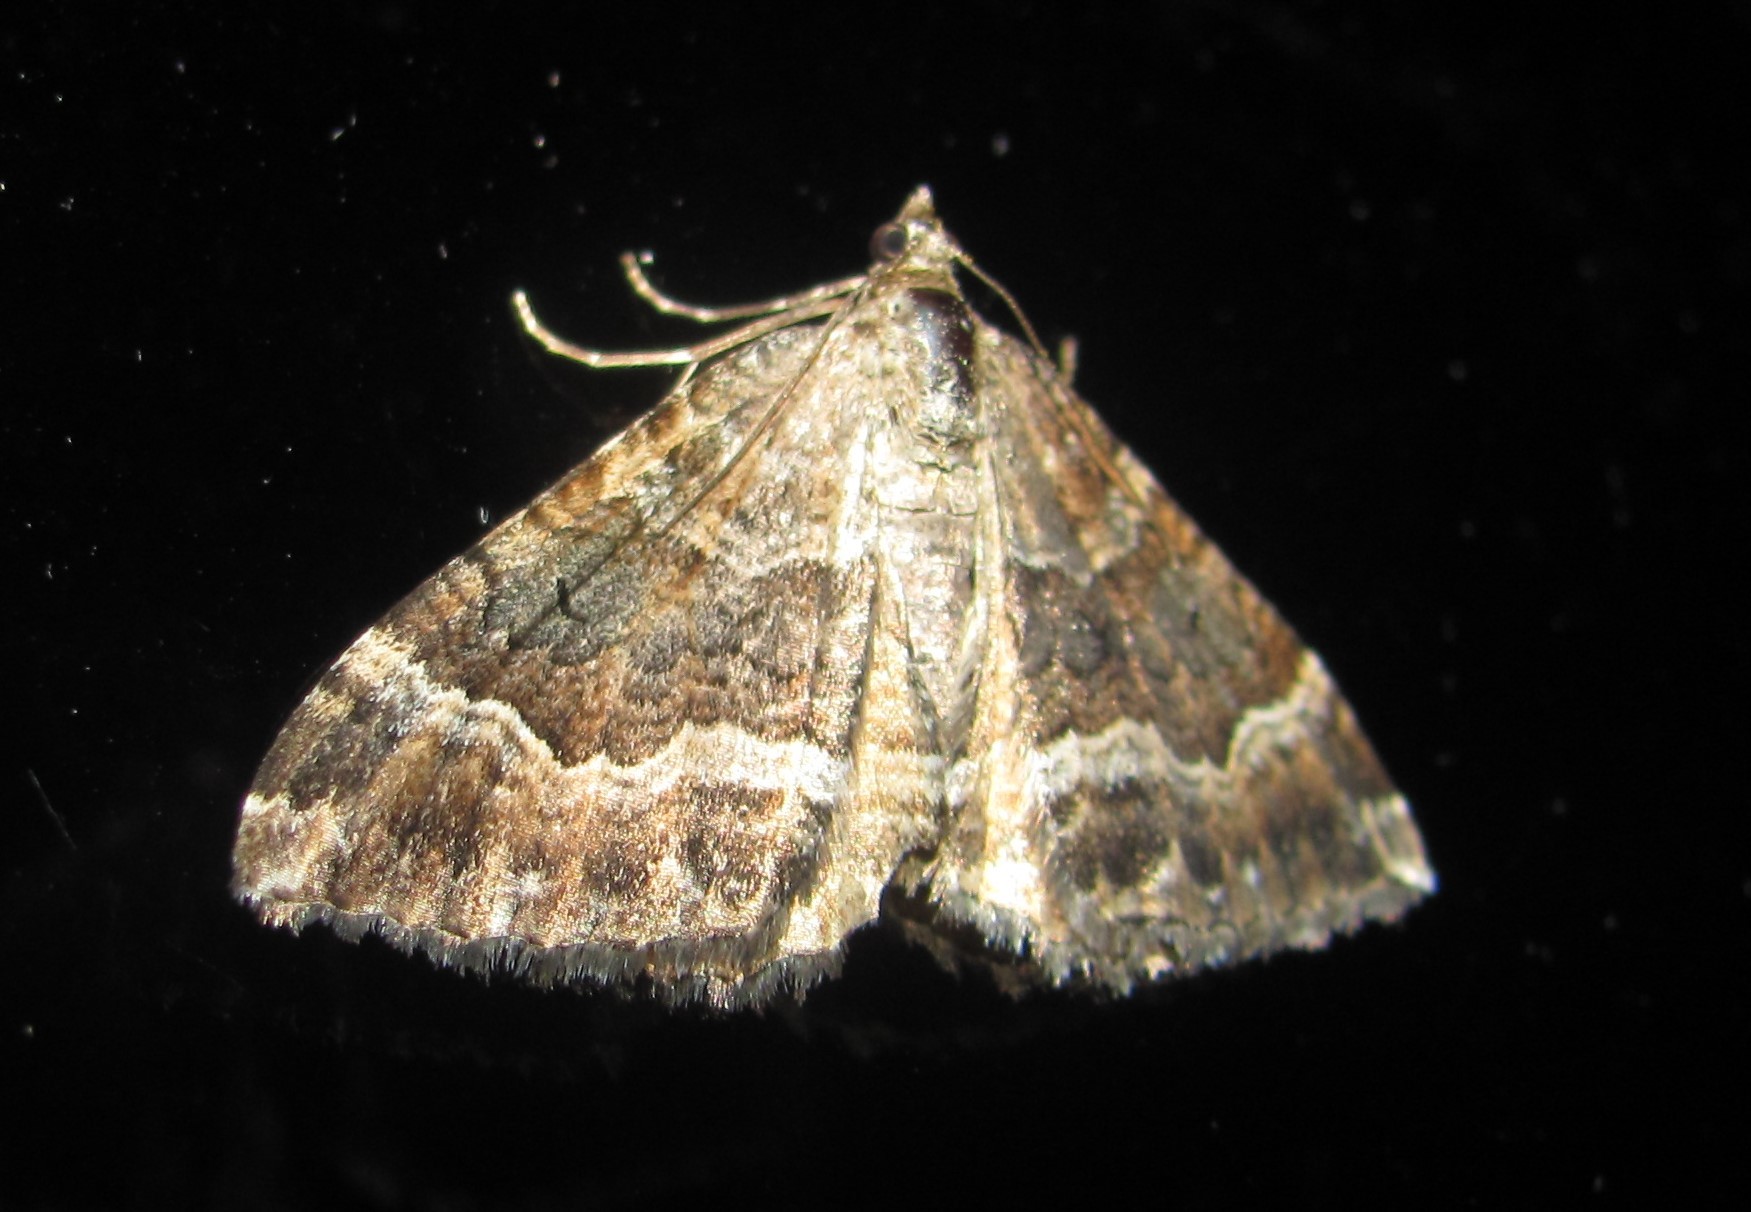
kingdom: Animalia
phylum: Arthropoda
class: Insecta
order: Lepidoptera
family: Geometridae
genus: Hydriomena
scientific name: Hydriomena deltoidata
